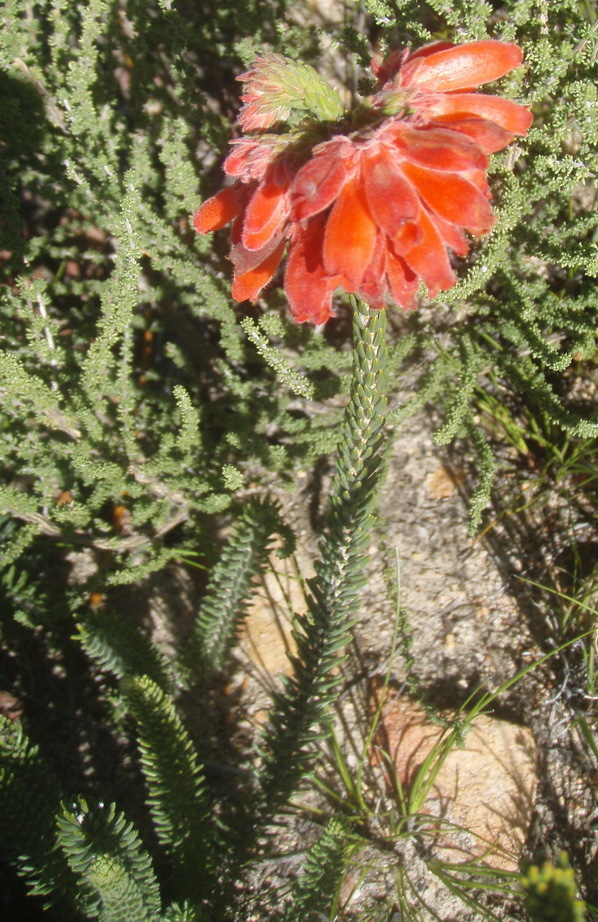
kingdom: Plantae
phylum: Tracheophyta
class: Magnoliopsida
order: Ericales
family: Ericaceae
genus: Erica
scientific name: Erica cerinthoides
